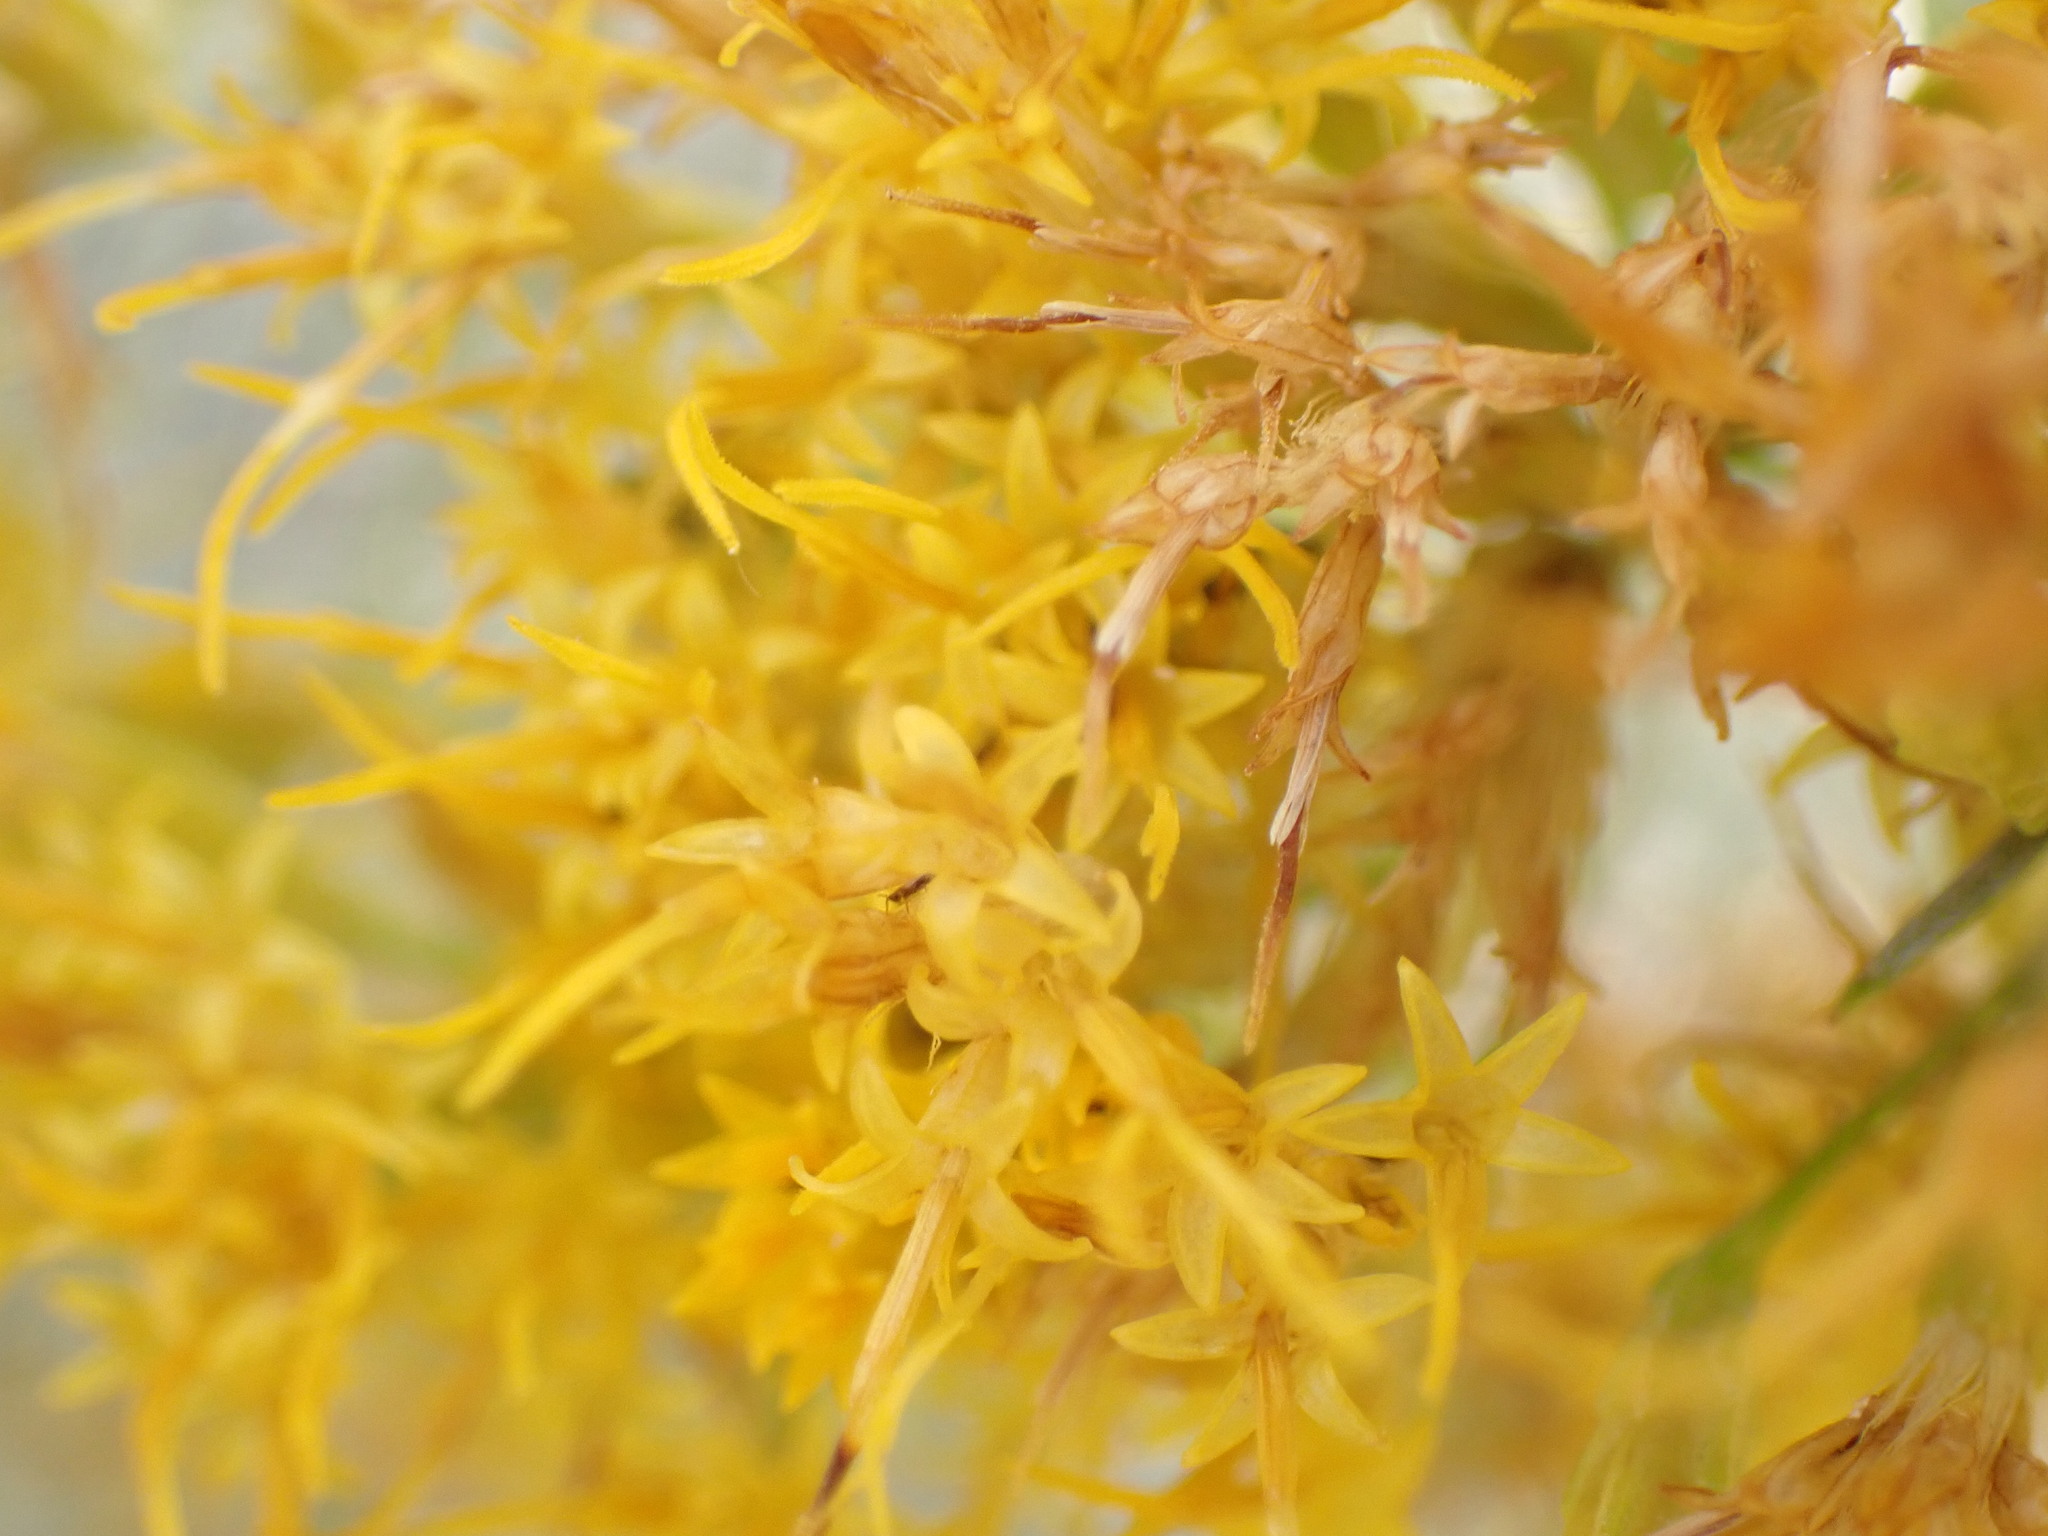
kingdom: Plantae
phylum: Tracheophyta
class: Magnoliopsida
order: Asterales
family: Asteraceae
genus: Ericameria
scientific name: Ericameria nauseosa
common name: Rubber rabbitbrush
